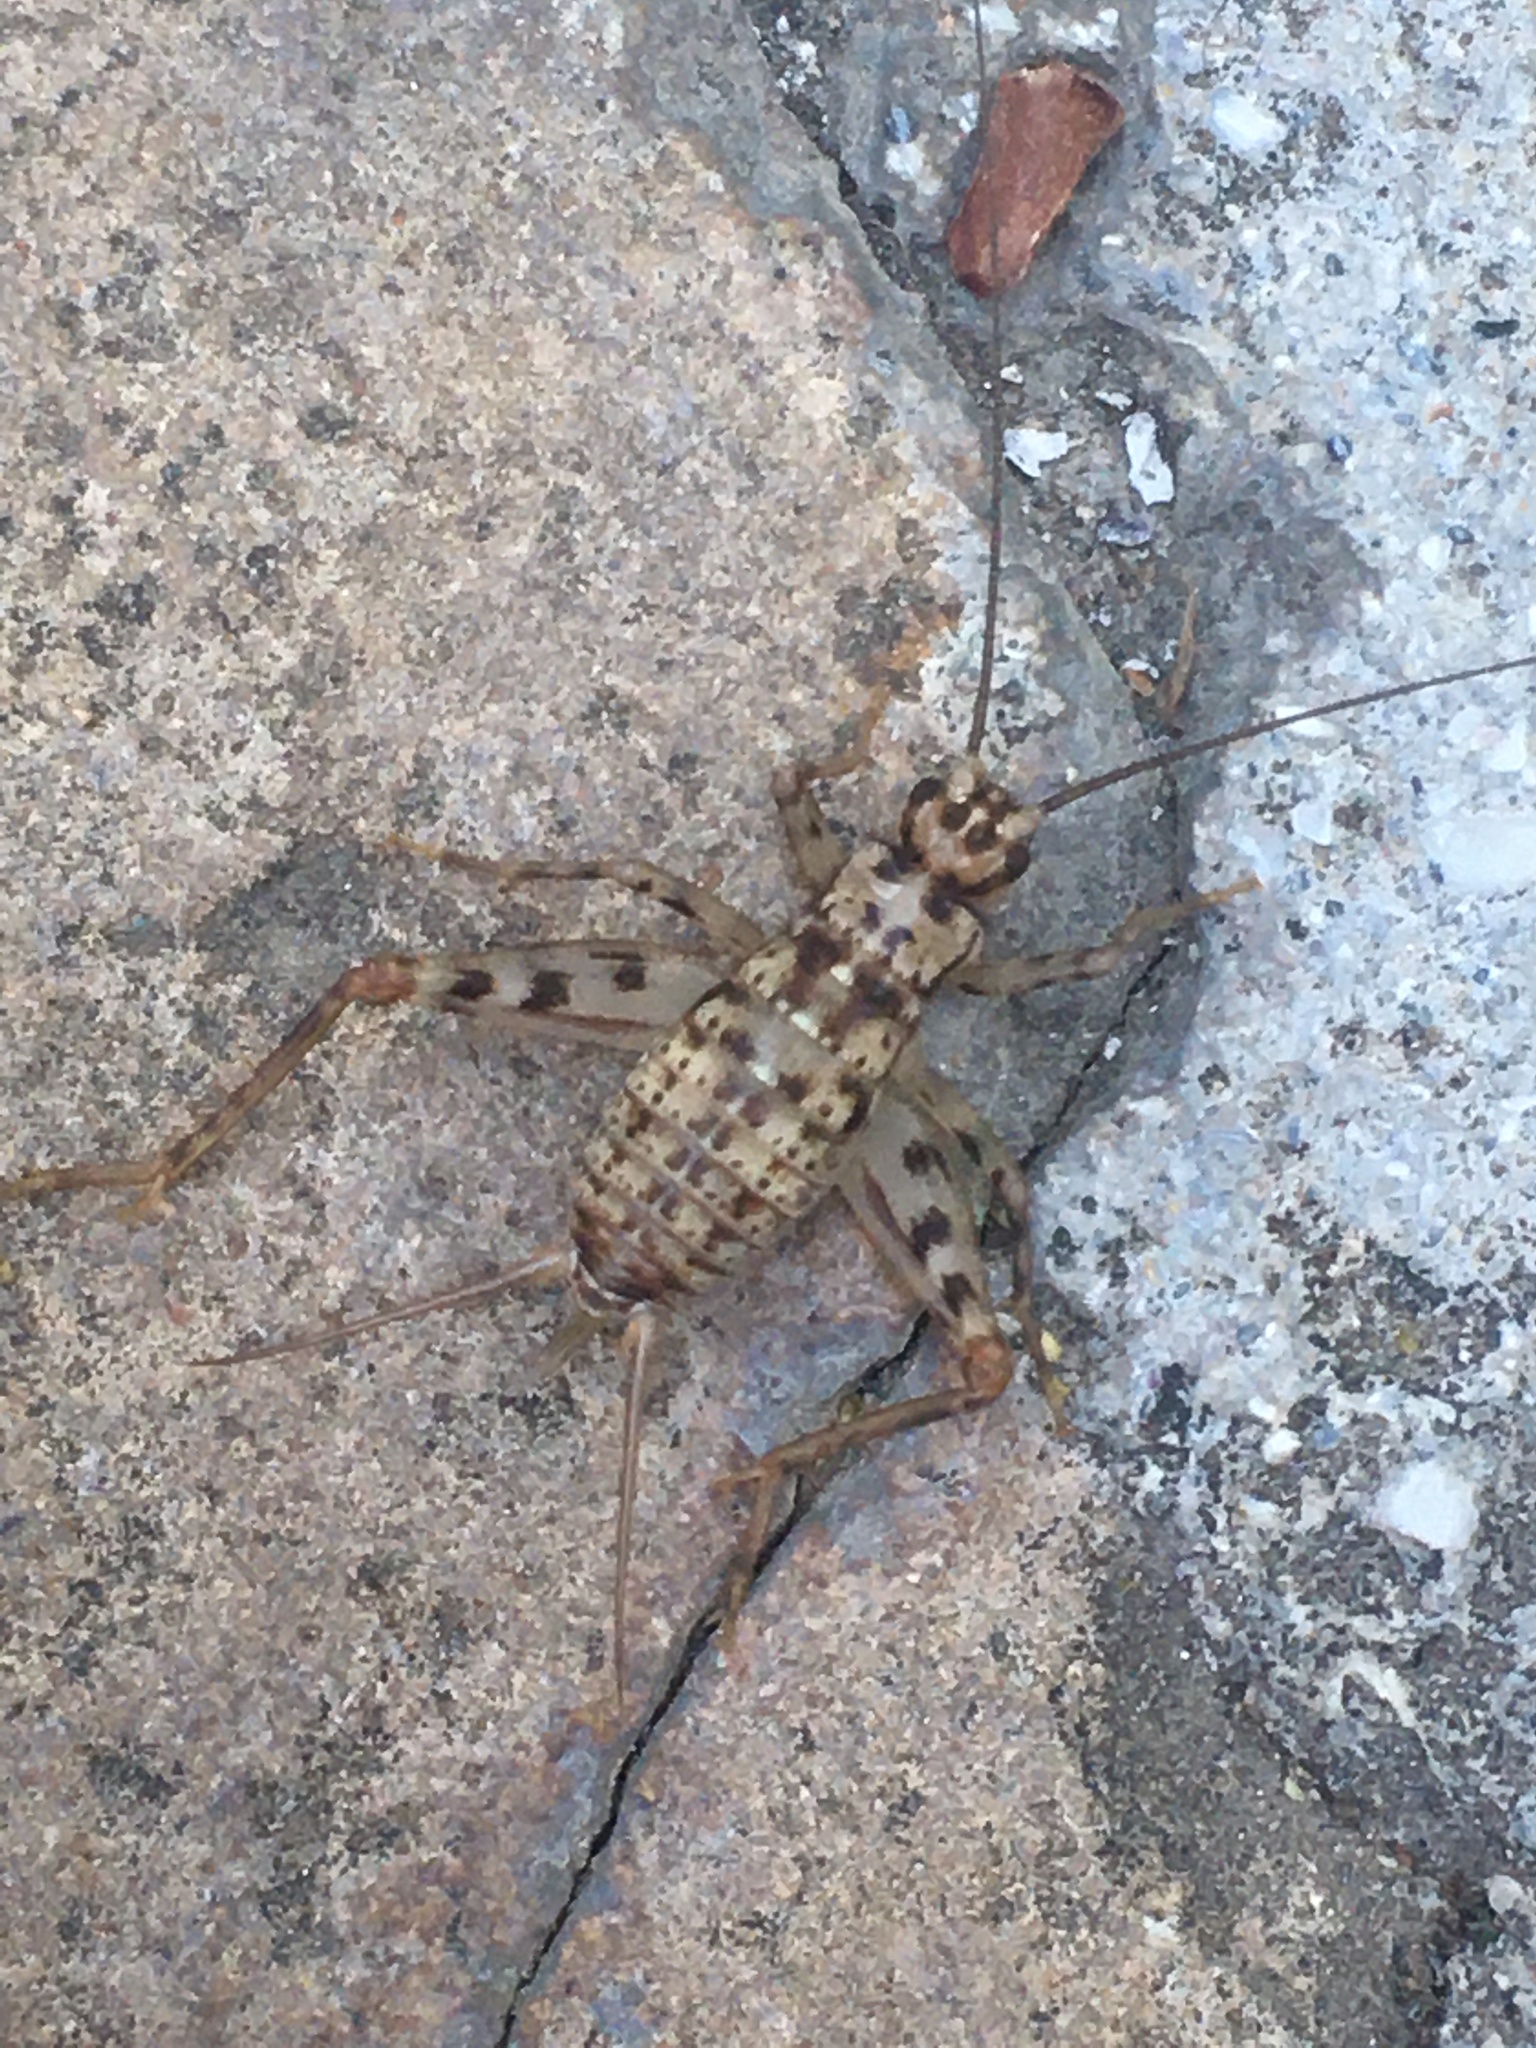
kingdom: Animalia
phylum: Arthropoda
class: Insecta
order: Orthoptera
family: Gryllidae
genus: Gryllomorpha
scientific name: Gryllomorpha dalmatina
